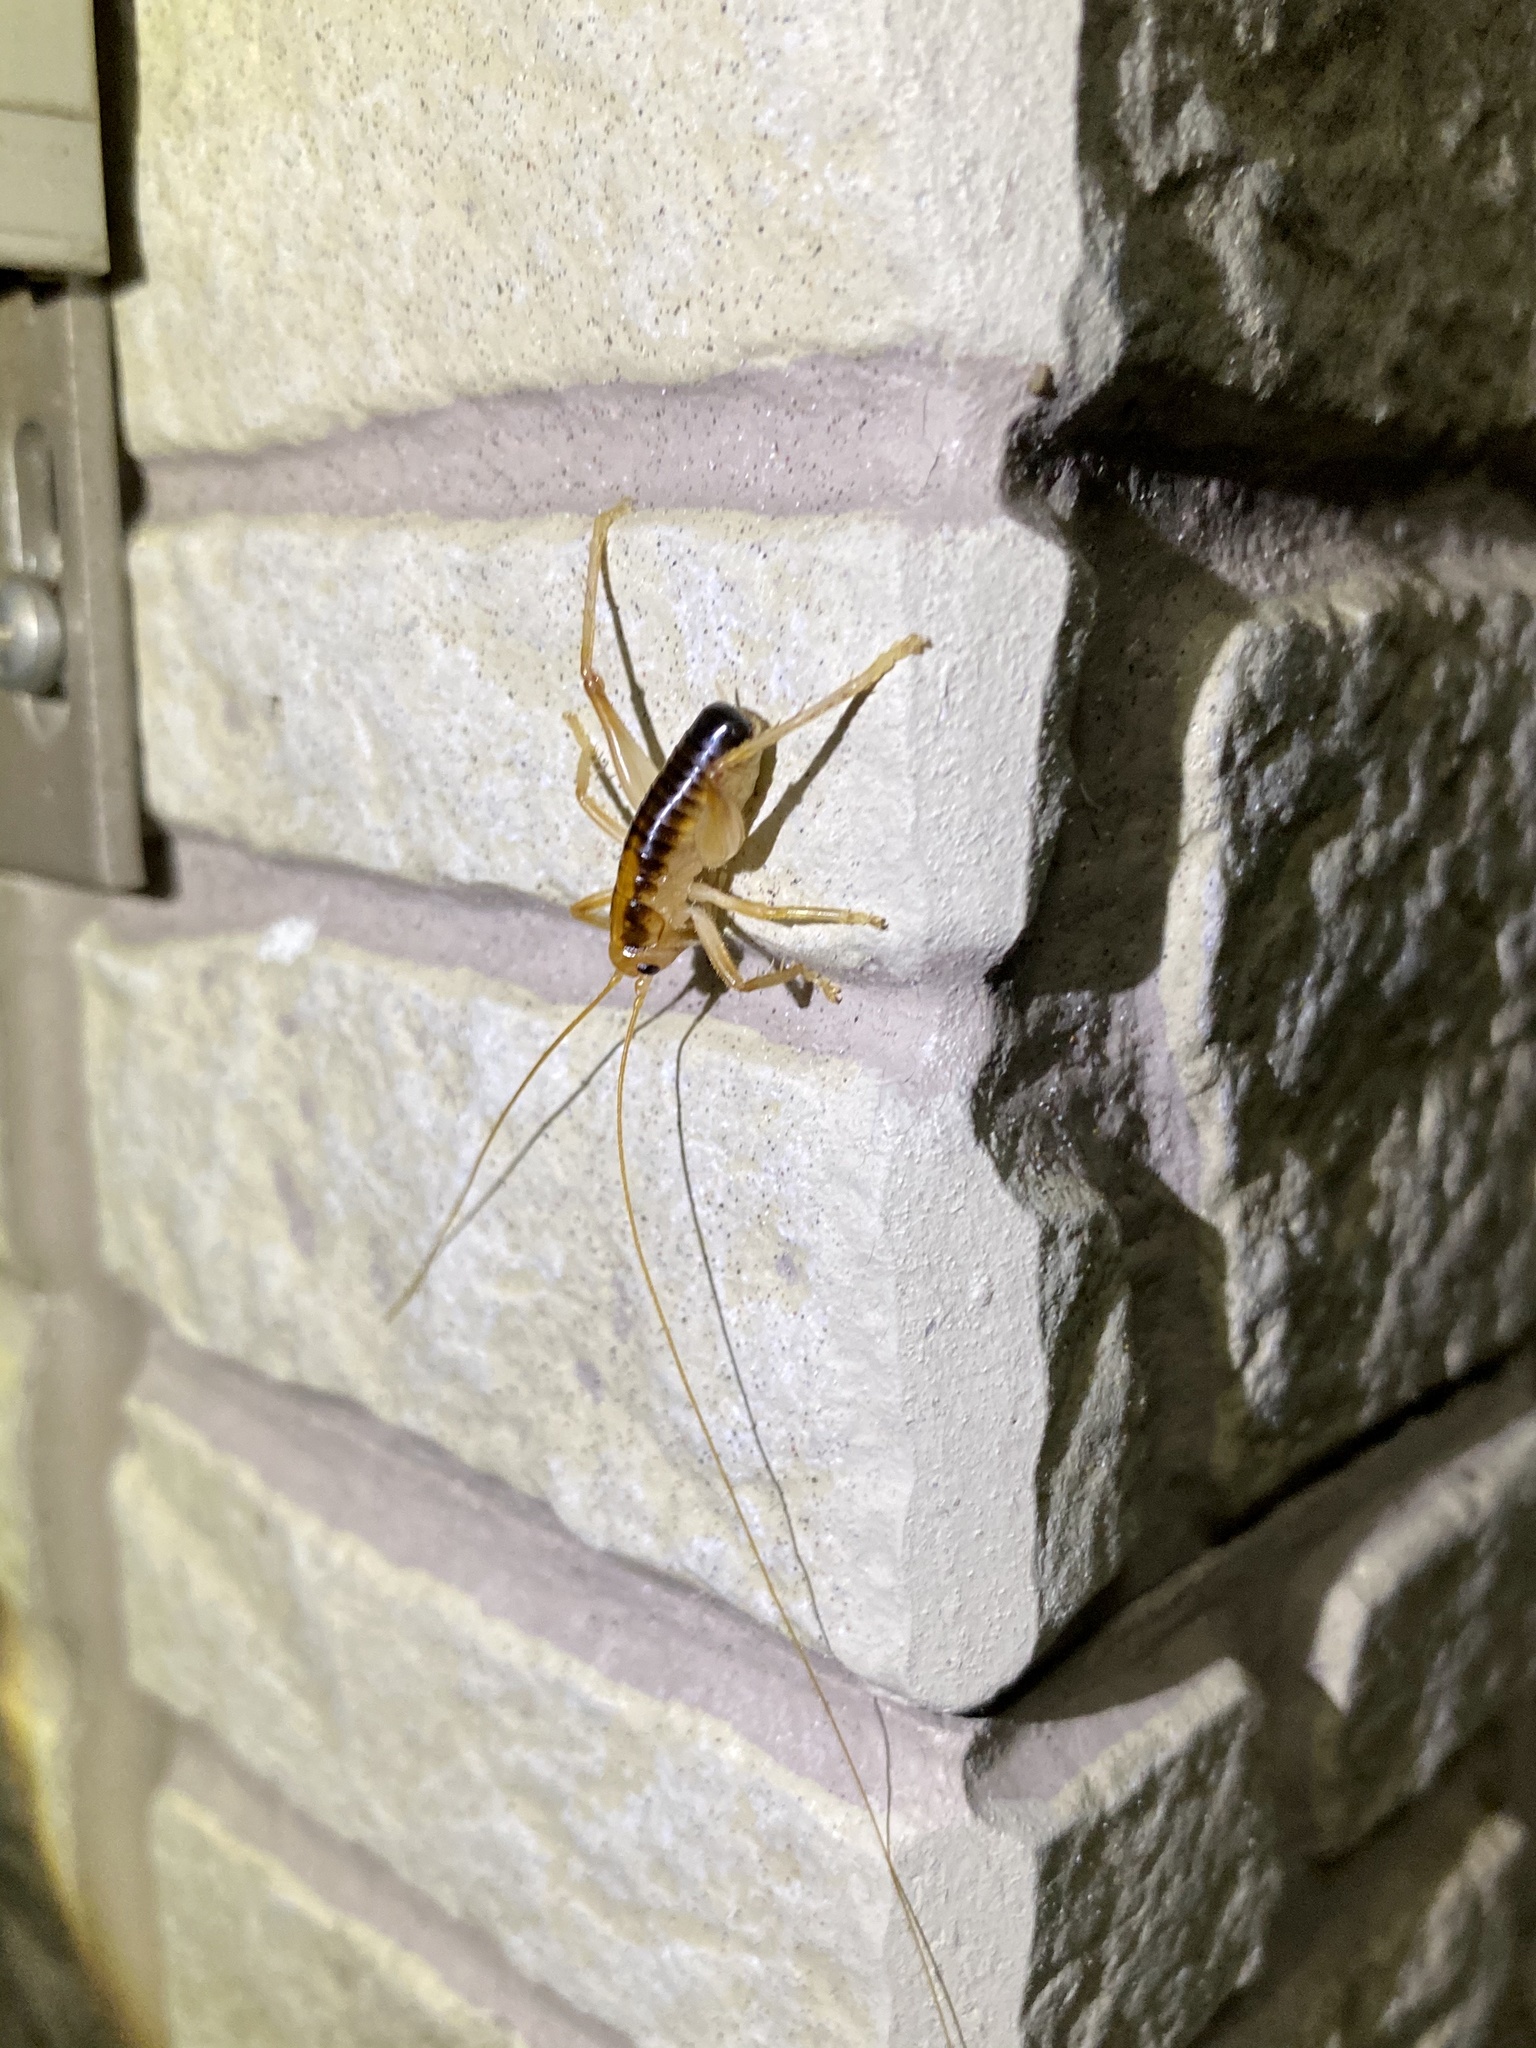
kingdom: Animalia
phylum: Arthropoda
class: Insecta
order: Orthoptera
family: Gryllacrididae
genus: Nippancistroger
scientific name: Nippancistroger testaceus
